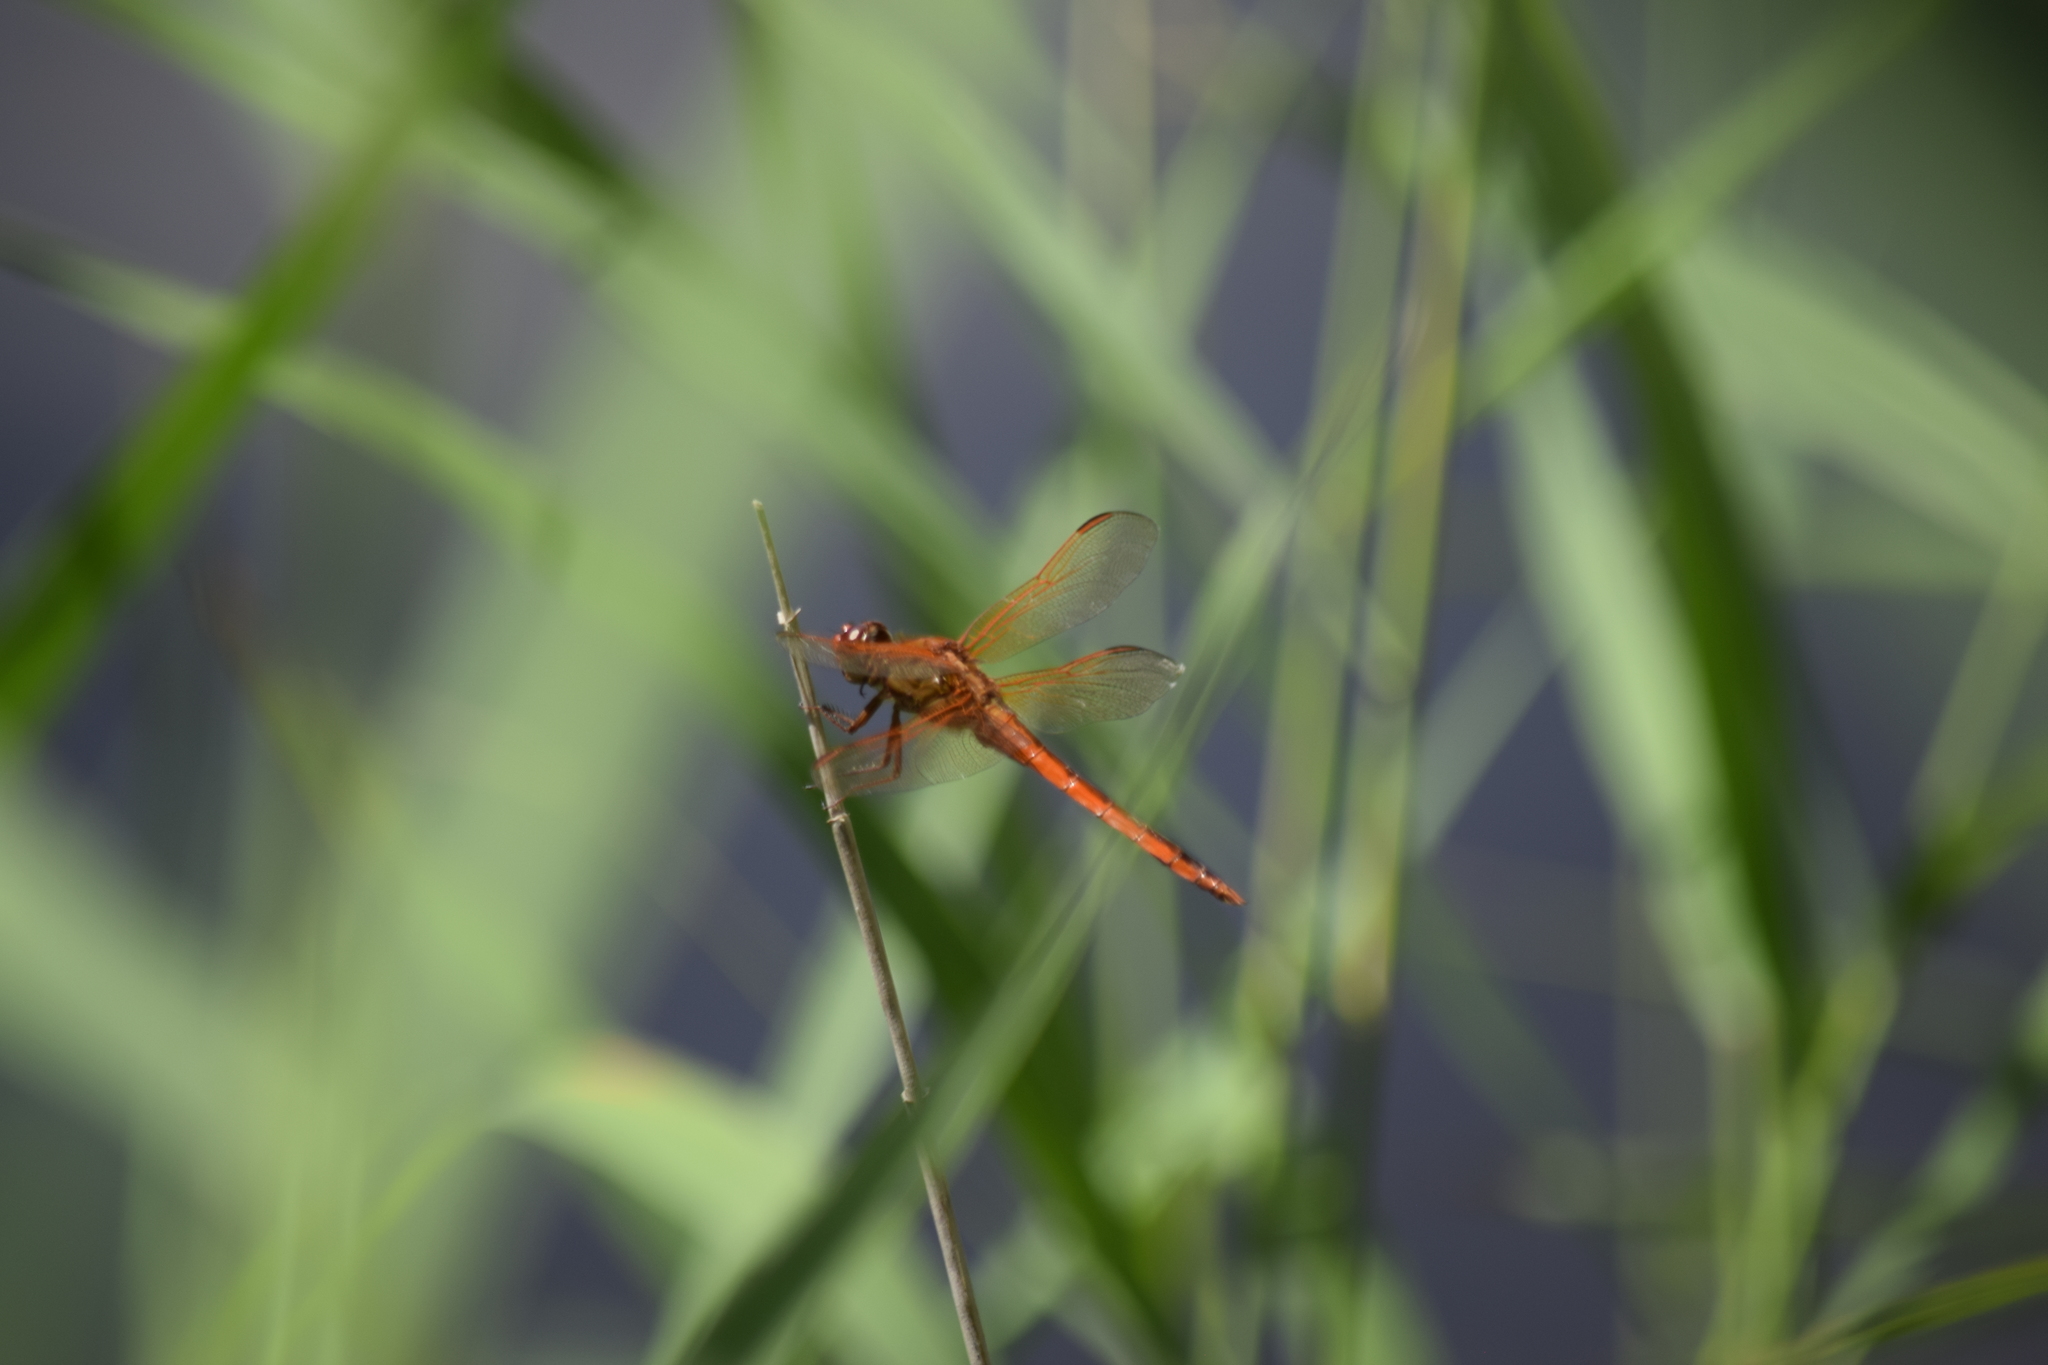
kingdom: Animalia
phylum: Arthropoda
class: Insecta
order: Odonata
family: Libellulidae
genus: Libellula
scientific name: Libellula needhami
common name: Needham's skimmer
